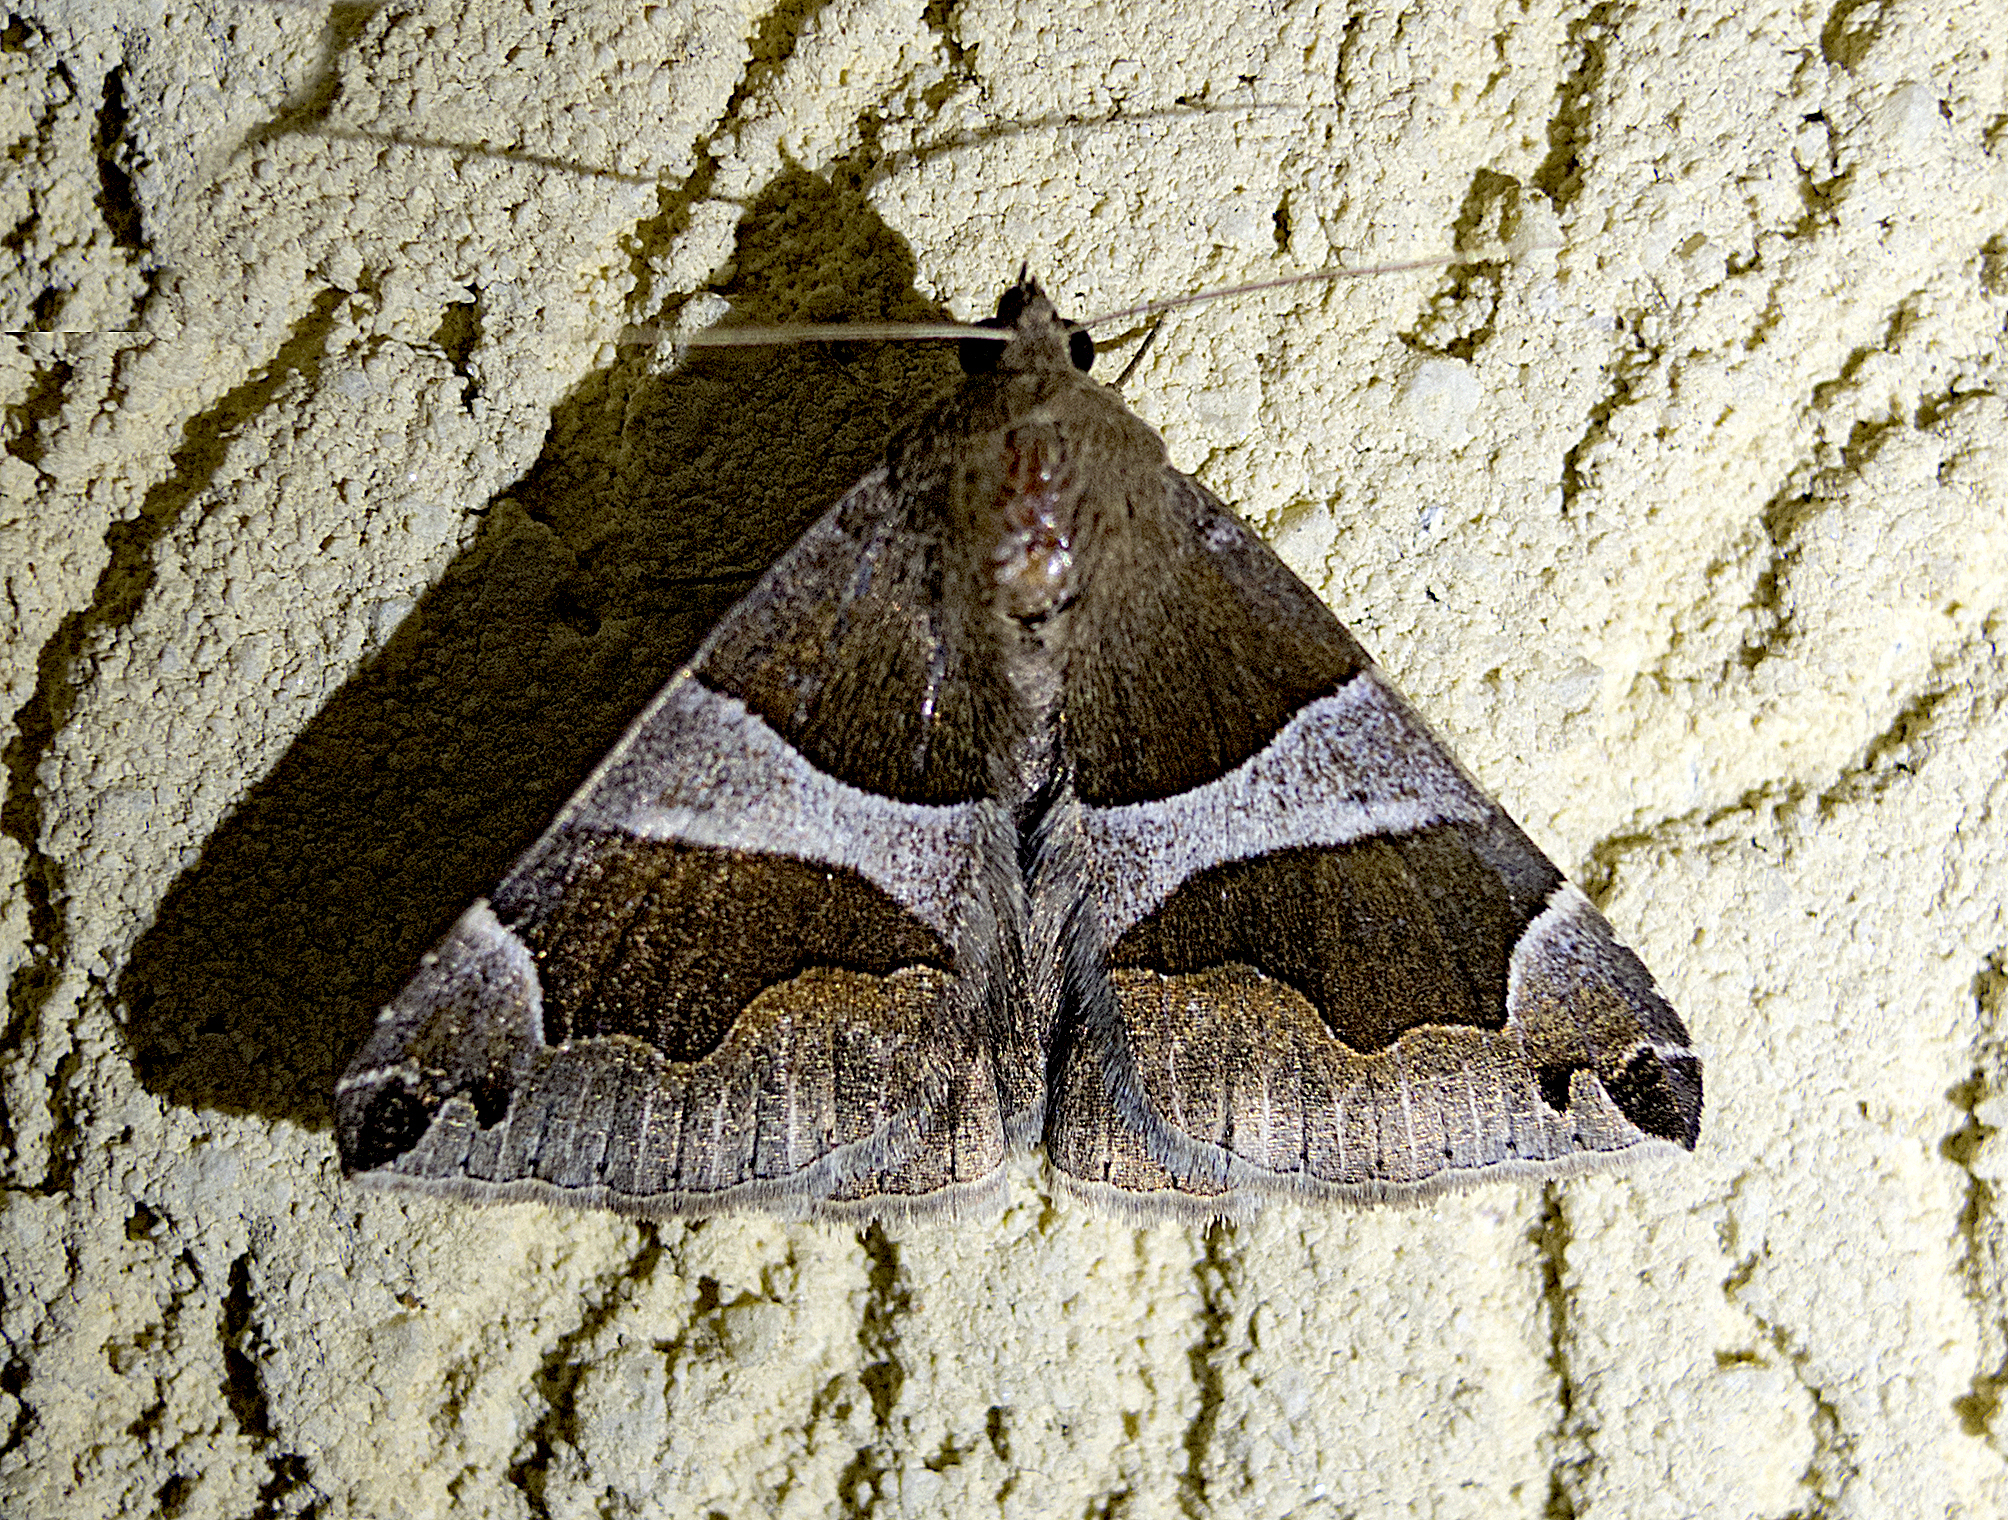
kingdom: Animalia
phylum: Arthropoda
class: Insecta
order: Lepidoptera
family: Erebidae
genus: Dysgonia
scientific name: Dysgonia algira
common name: Passenger
